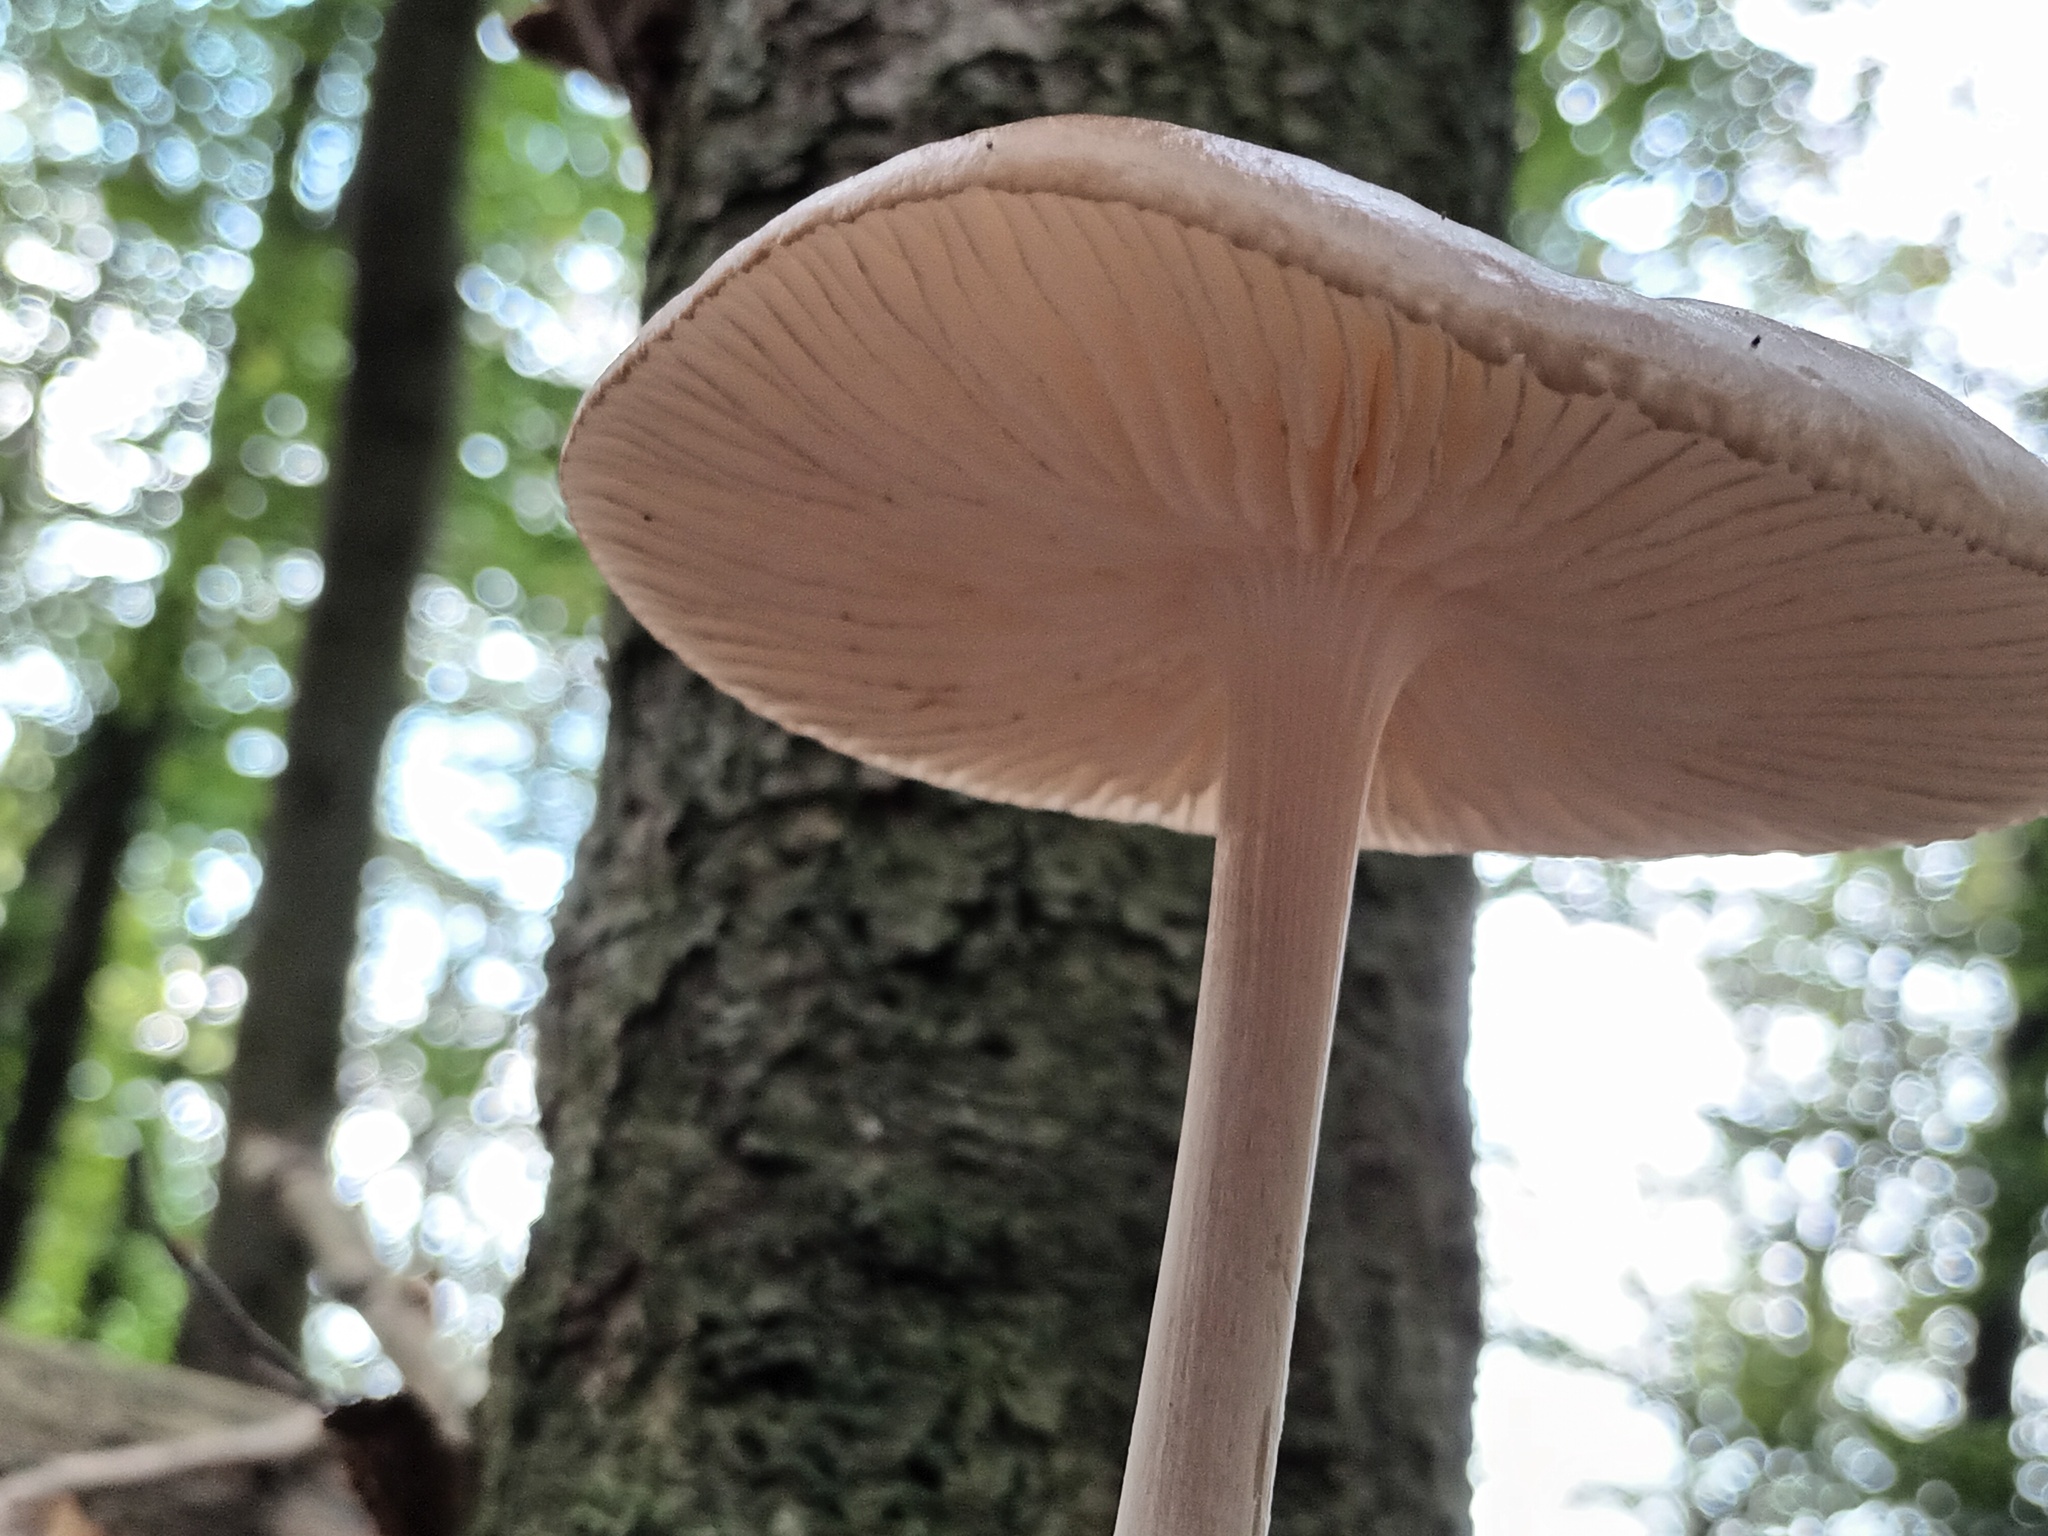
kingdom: Fungi
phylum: Basidiomycota
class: Agaricomycetes
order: Agaricales
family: Physalacriaceae
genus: Hymenopellis
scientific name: Hymenopellis radicata
